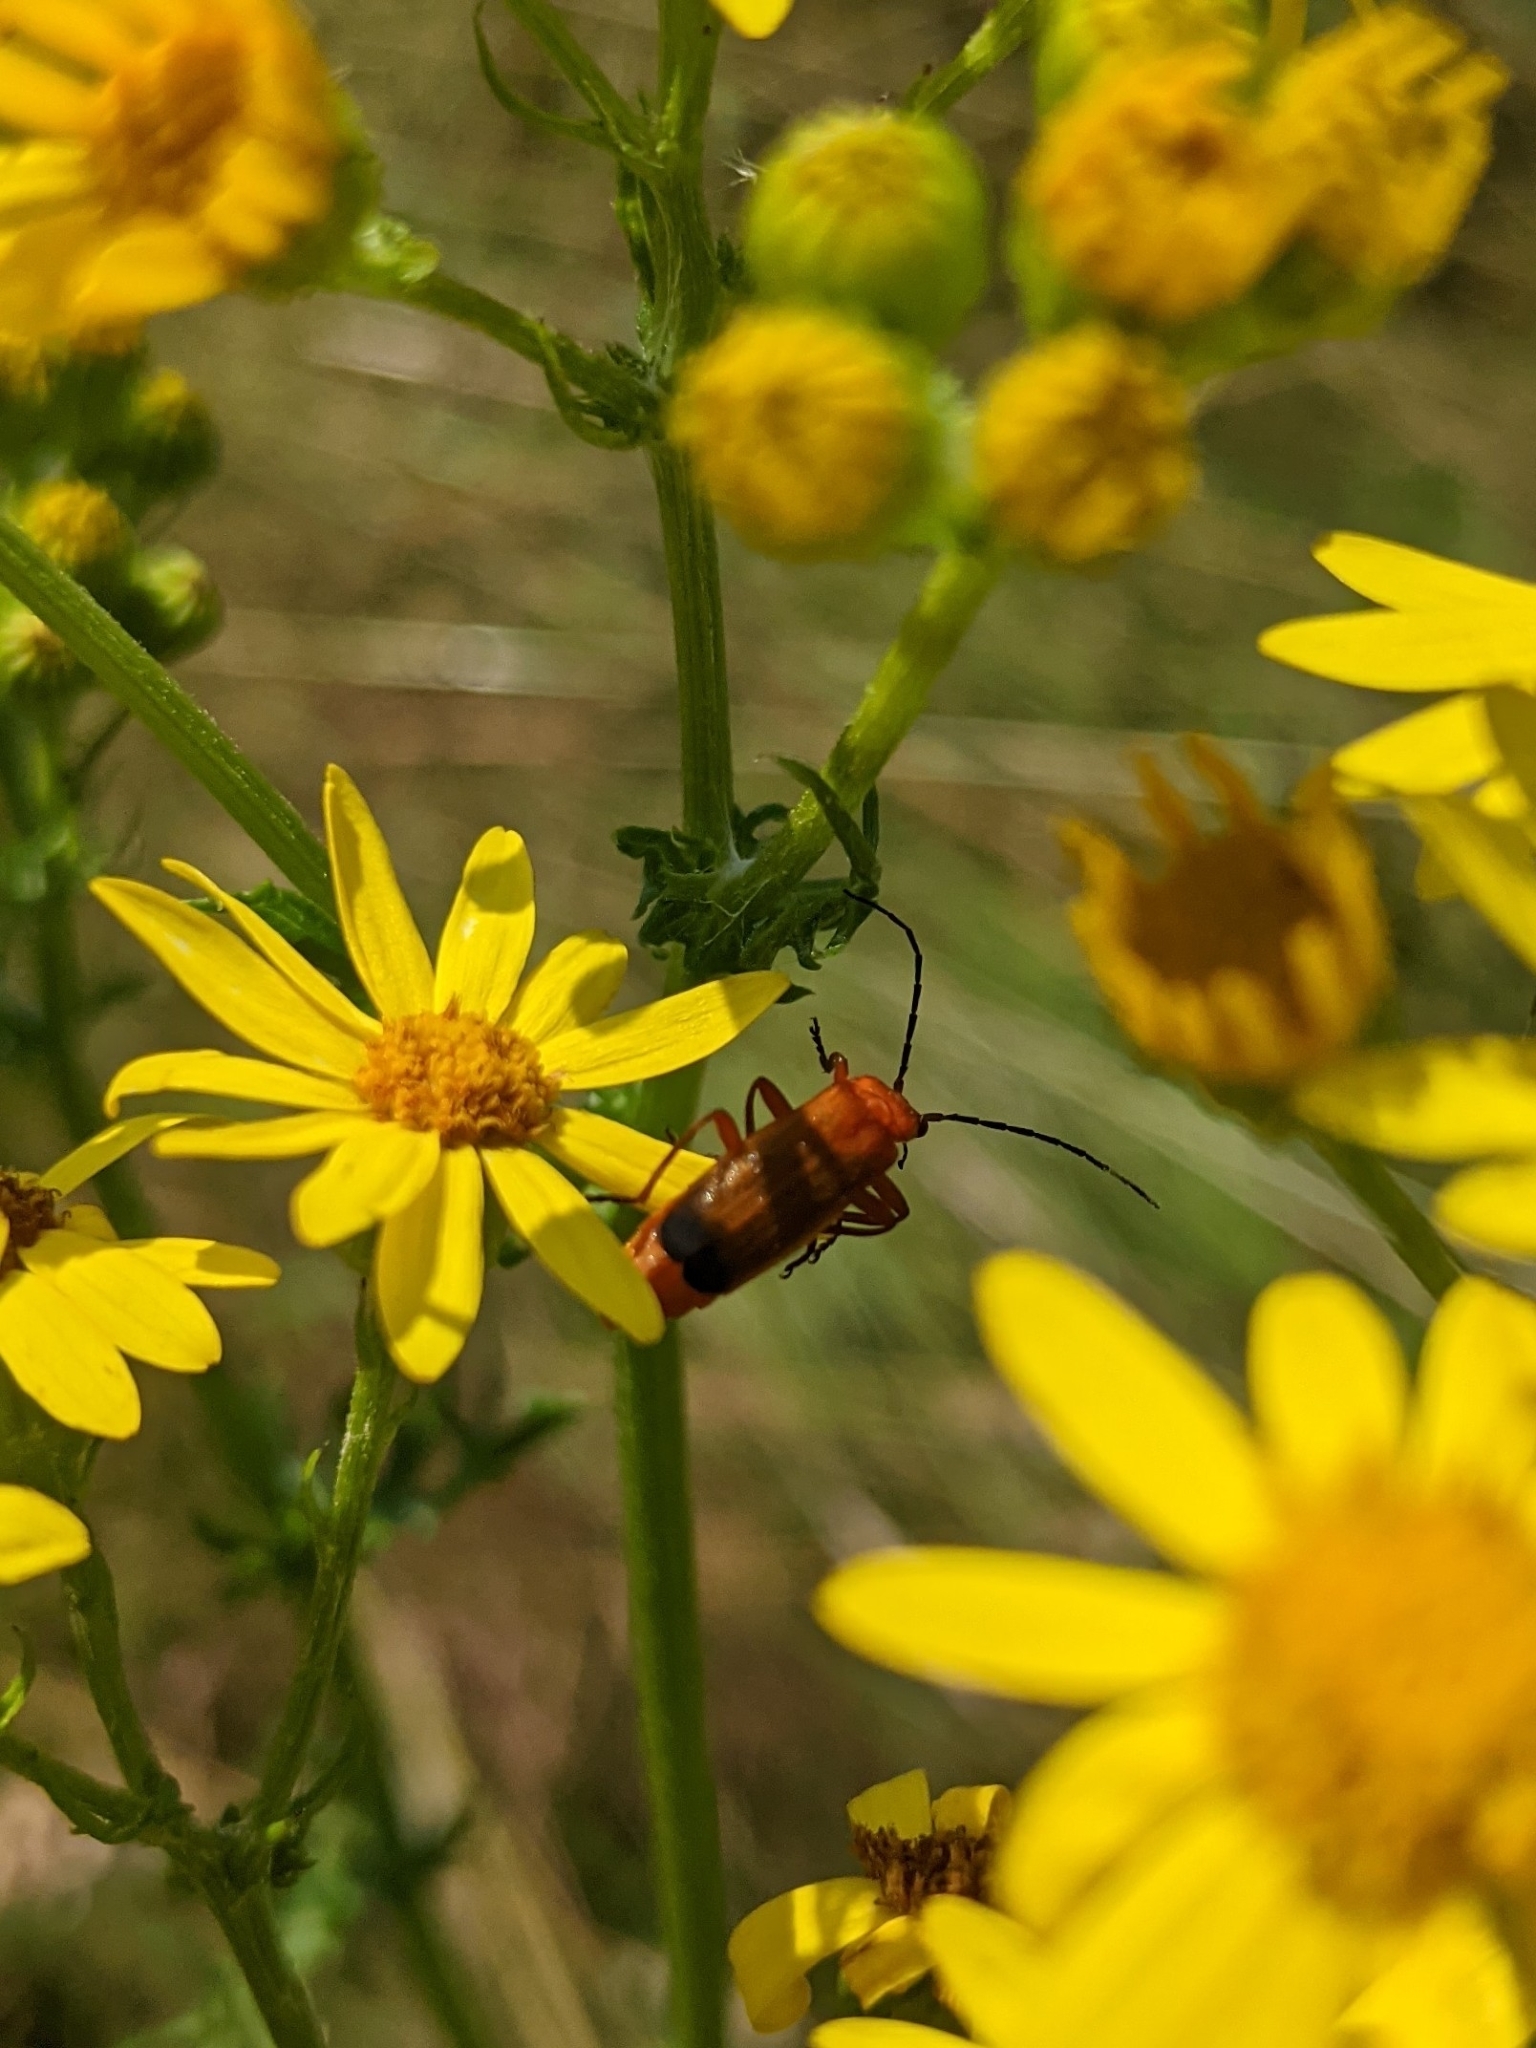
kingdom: Animalia
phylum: Arthropoda
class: Insecta
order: Coleoptera
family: Cantharidae
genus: Rhagonycha
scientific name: Rhagonycha fulva
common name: Common red soldier beetle
